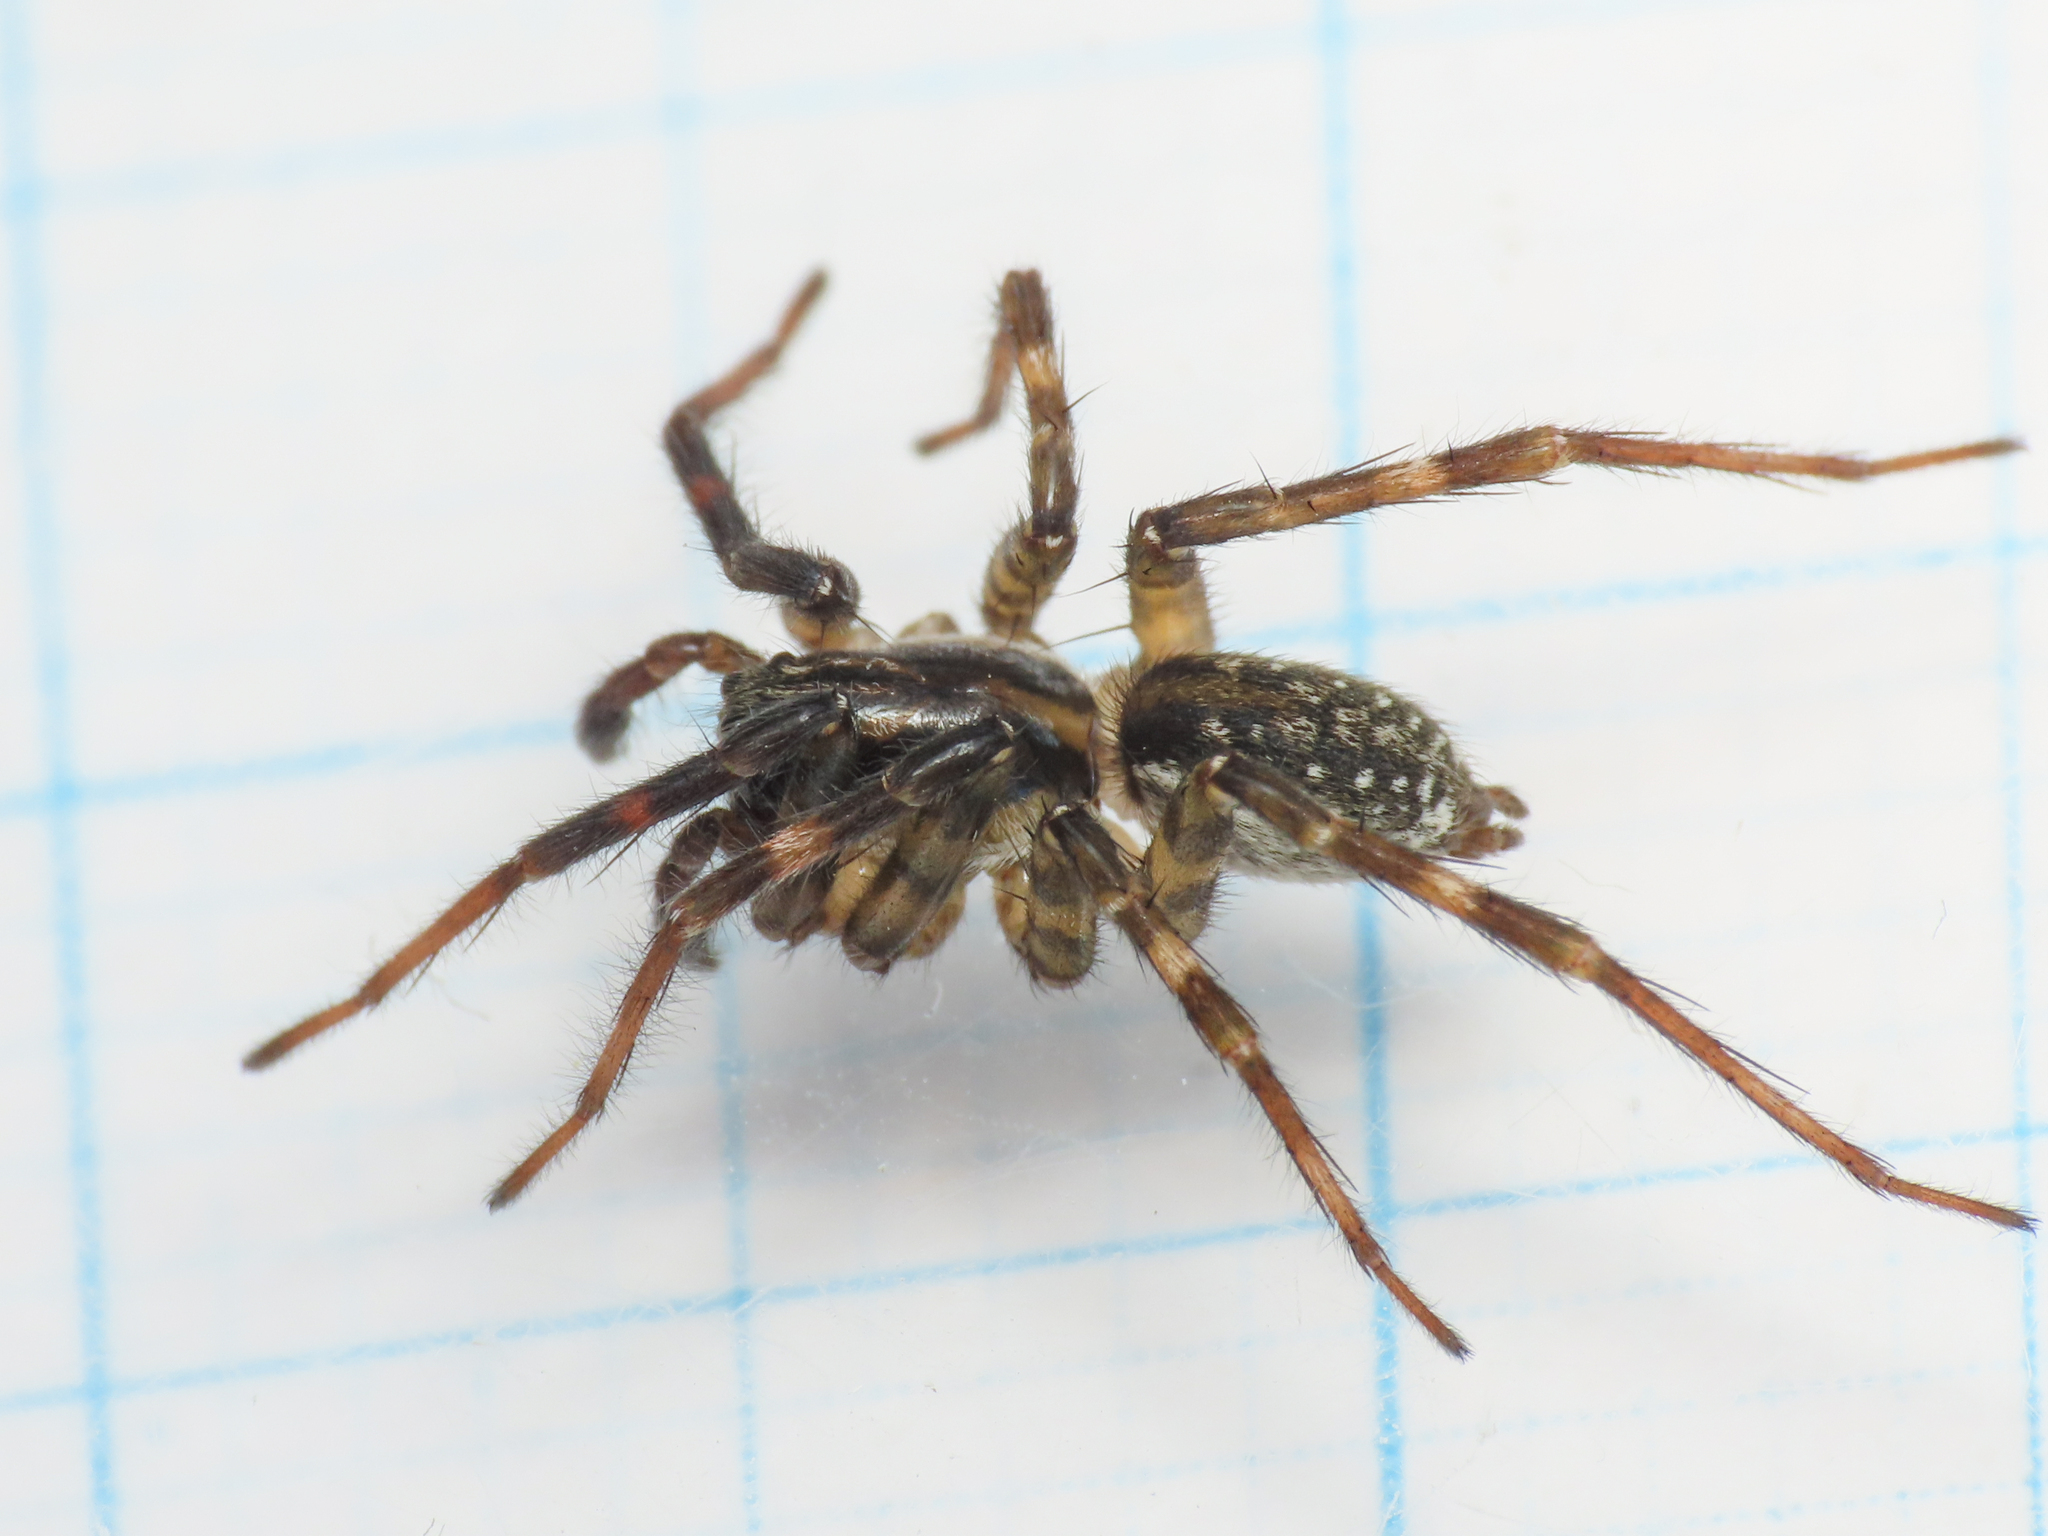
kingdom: Animalia
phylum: Arthropoda
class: Arachnida
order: Araneae
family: Lycosidae
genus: Piratula
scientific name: Piratula knorri
